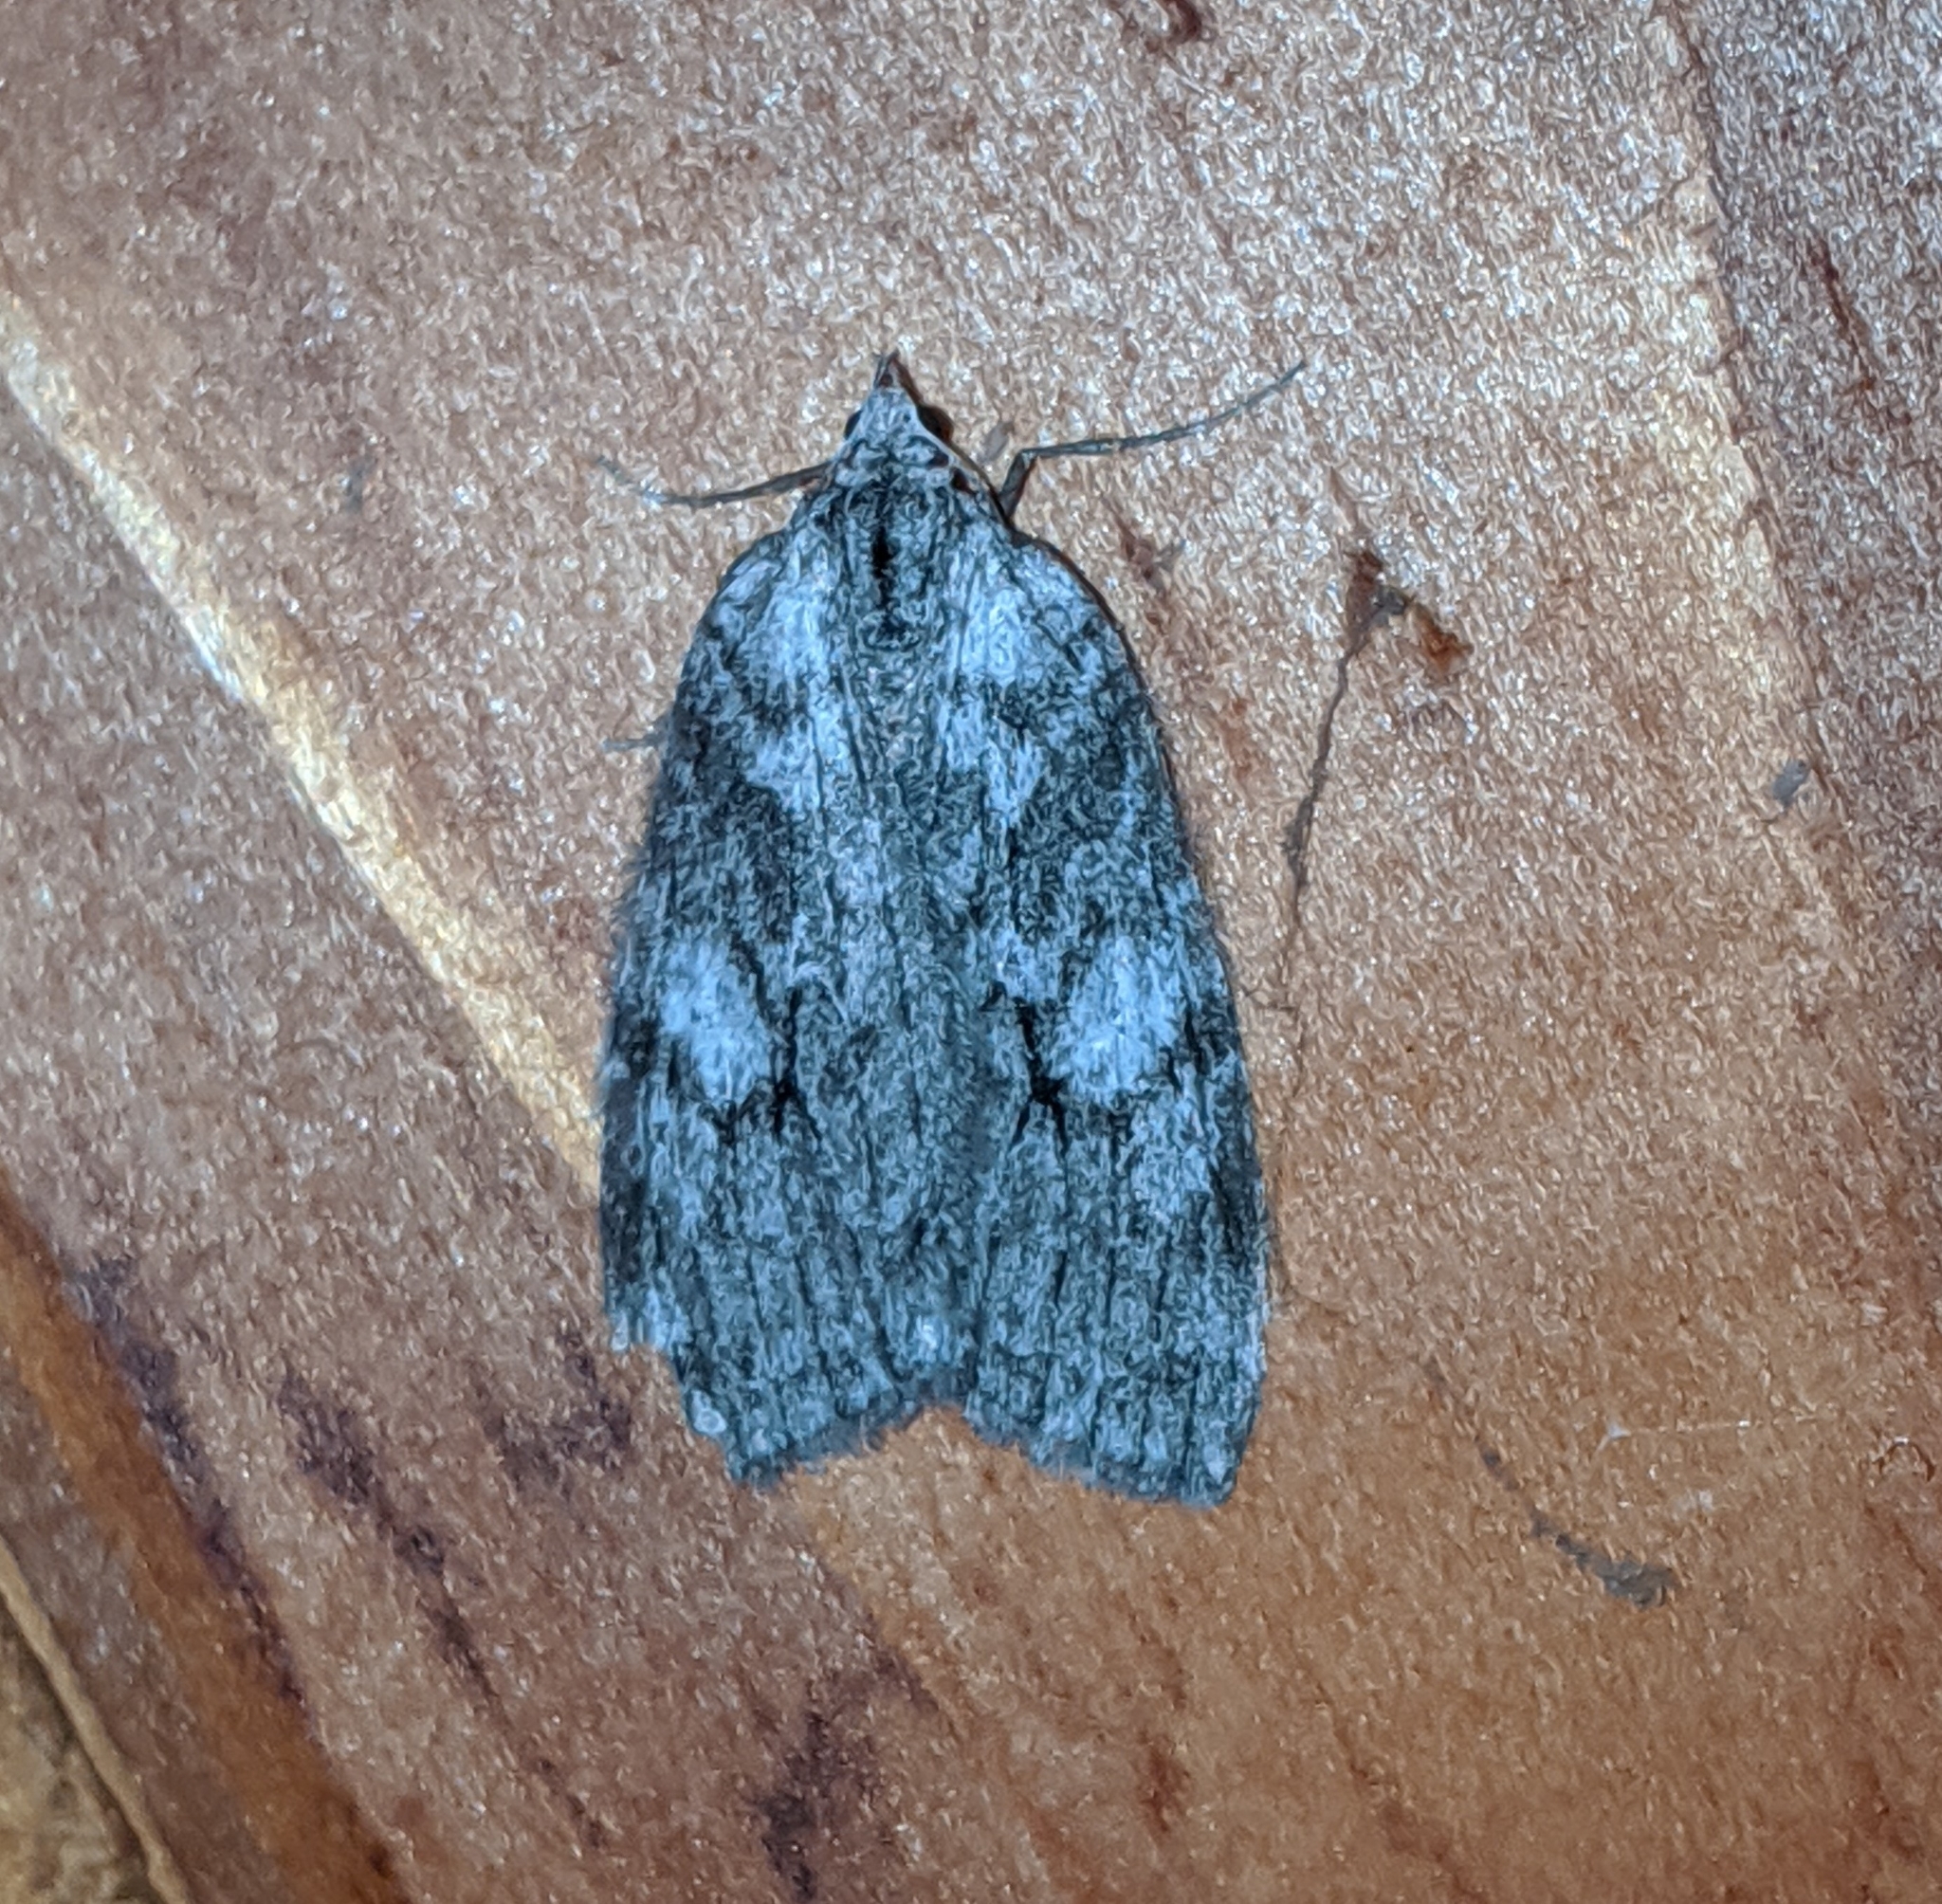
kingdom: Animalia
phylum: Arthropoda
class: Insecta
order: Lepidoptera
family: Geometridae
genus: Hydriomena
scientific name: Hydriomena manzanita
